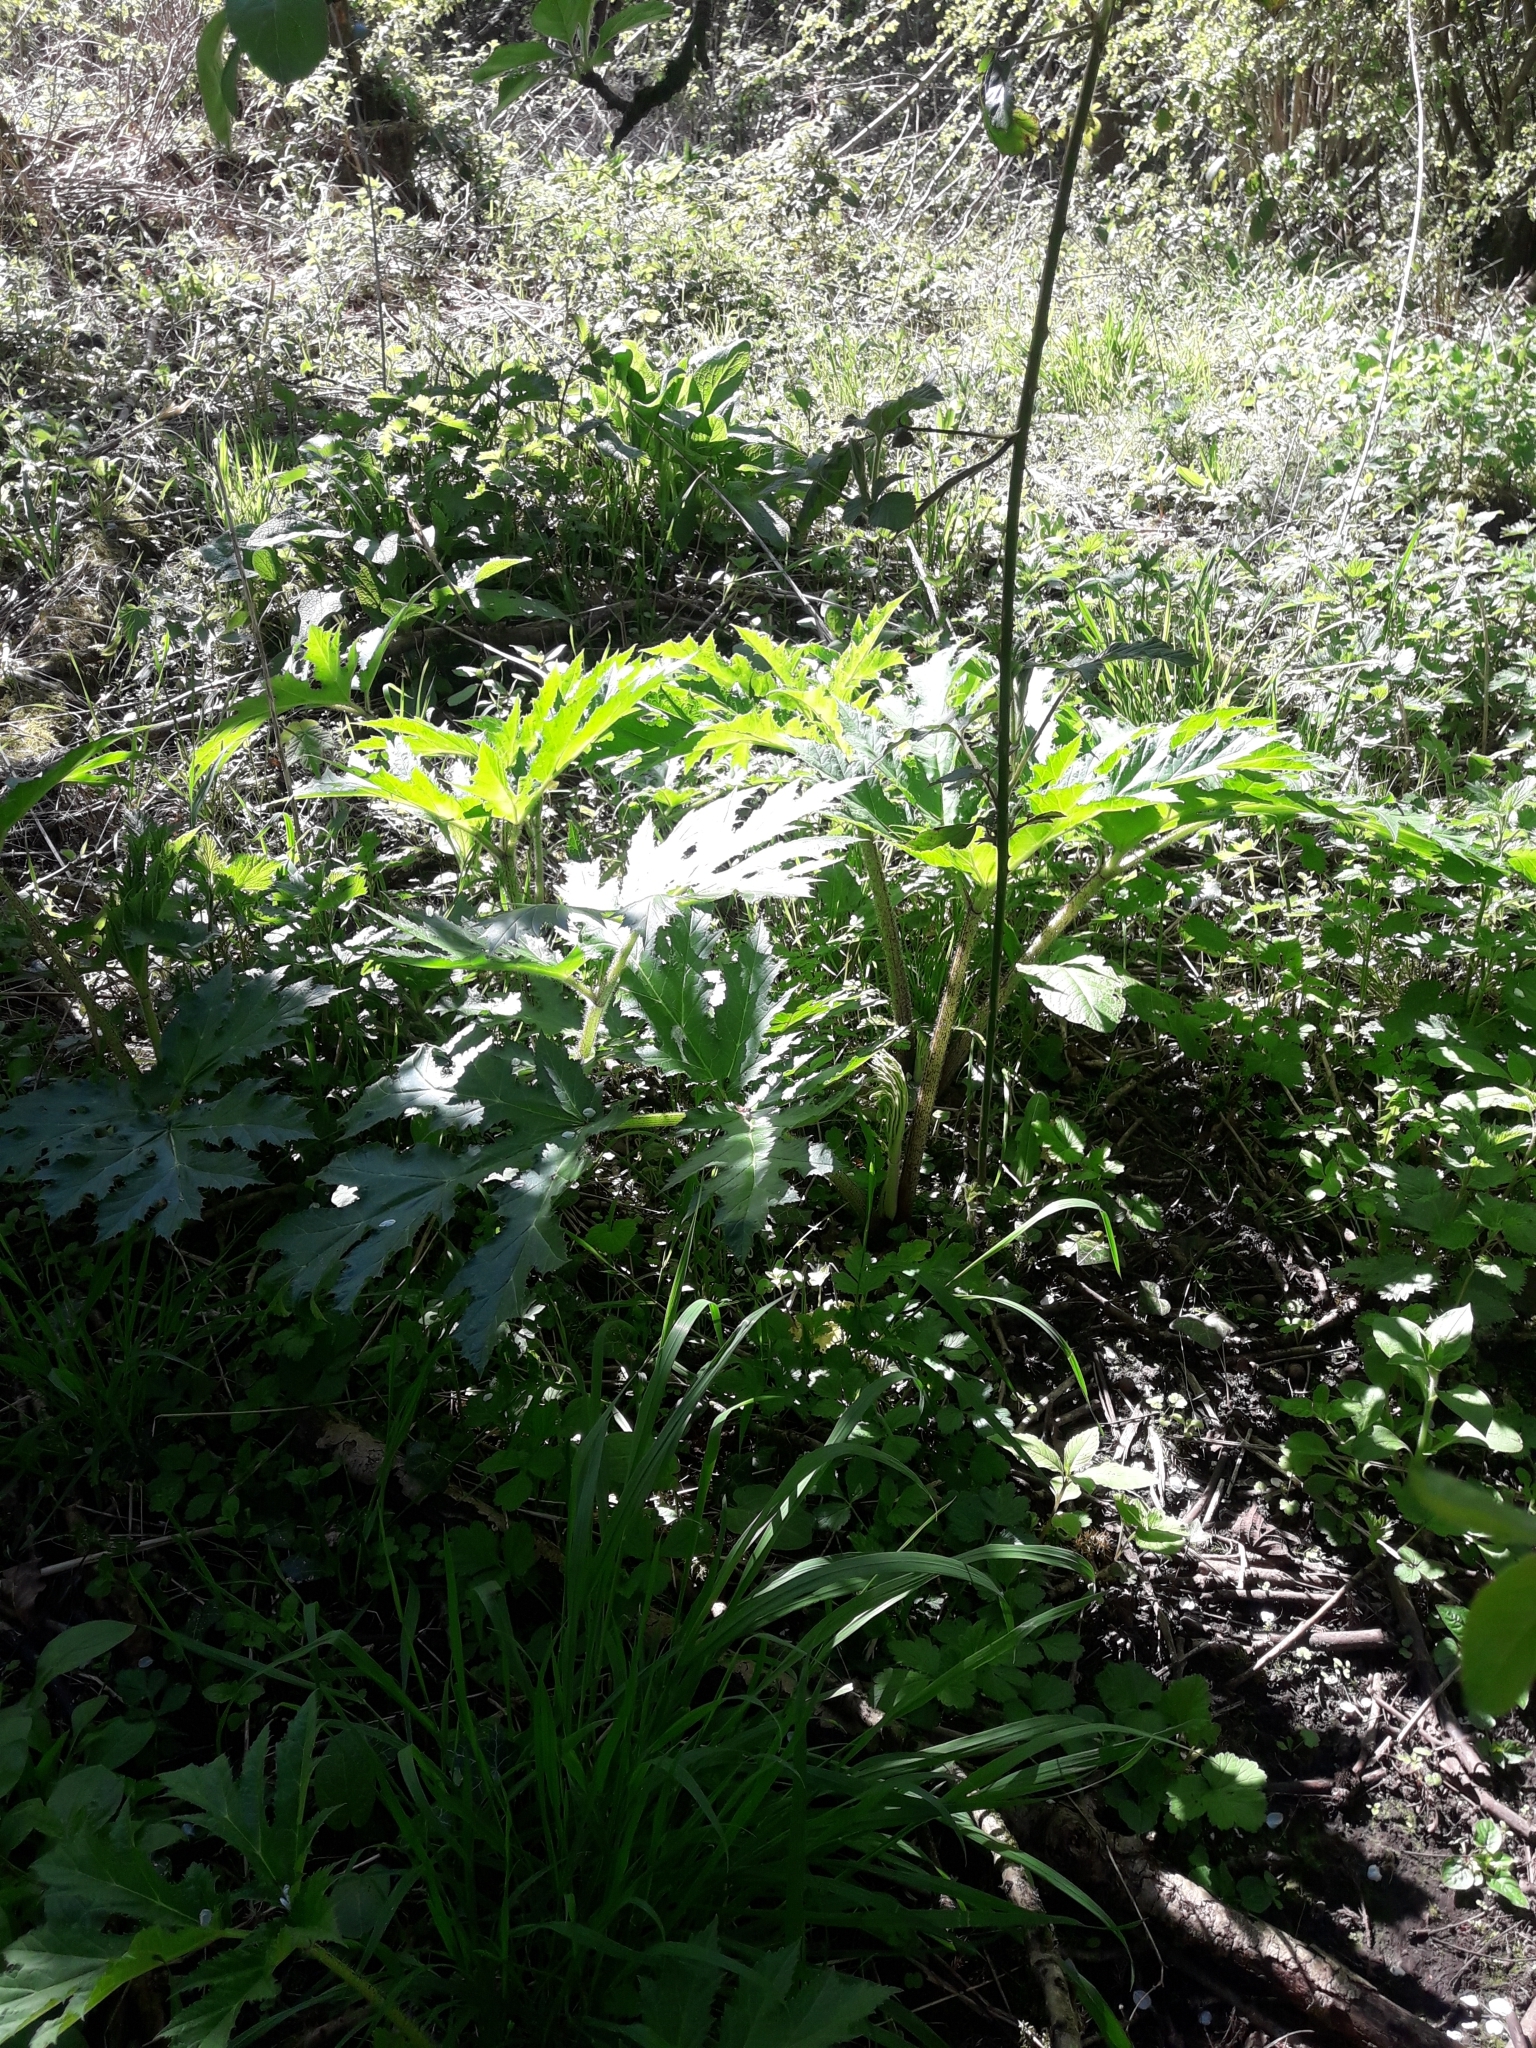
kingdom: Plantae
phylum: Tracheophyta
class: Magnoliopsida
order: Apiales
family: Apiaceae
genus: Heracleum
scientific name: Heracleum mantegazzianum
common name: Giant hogweed
